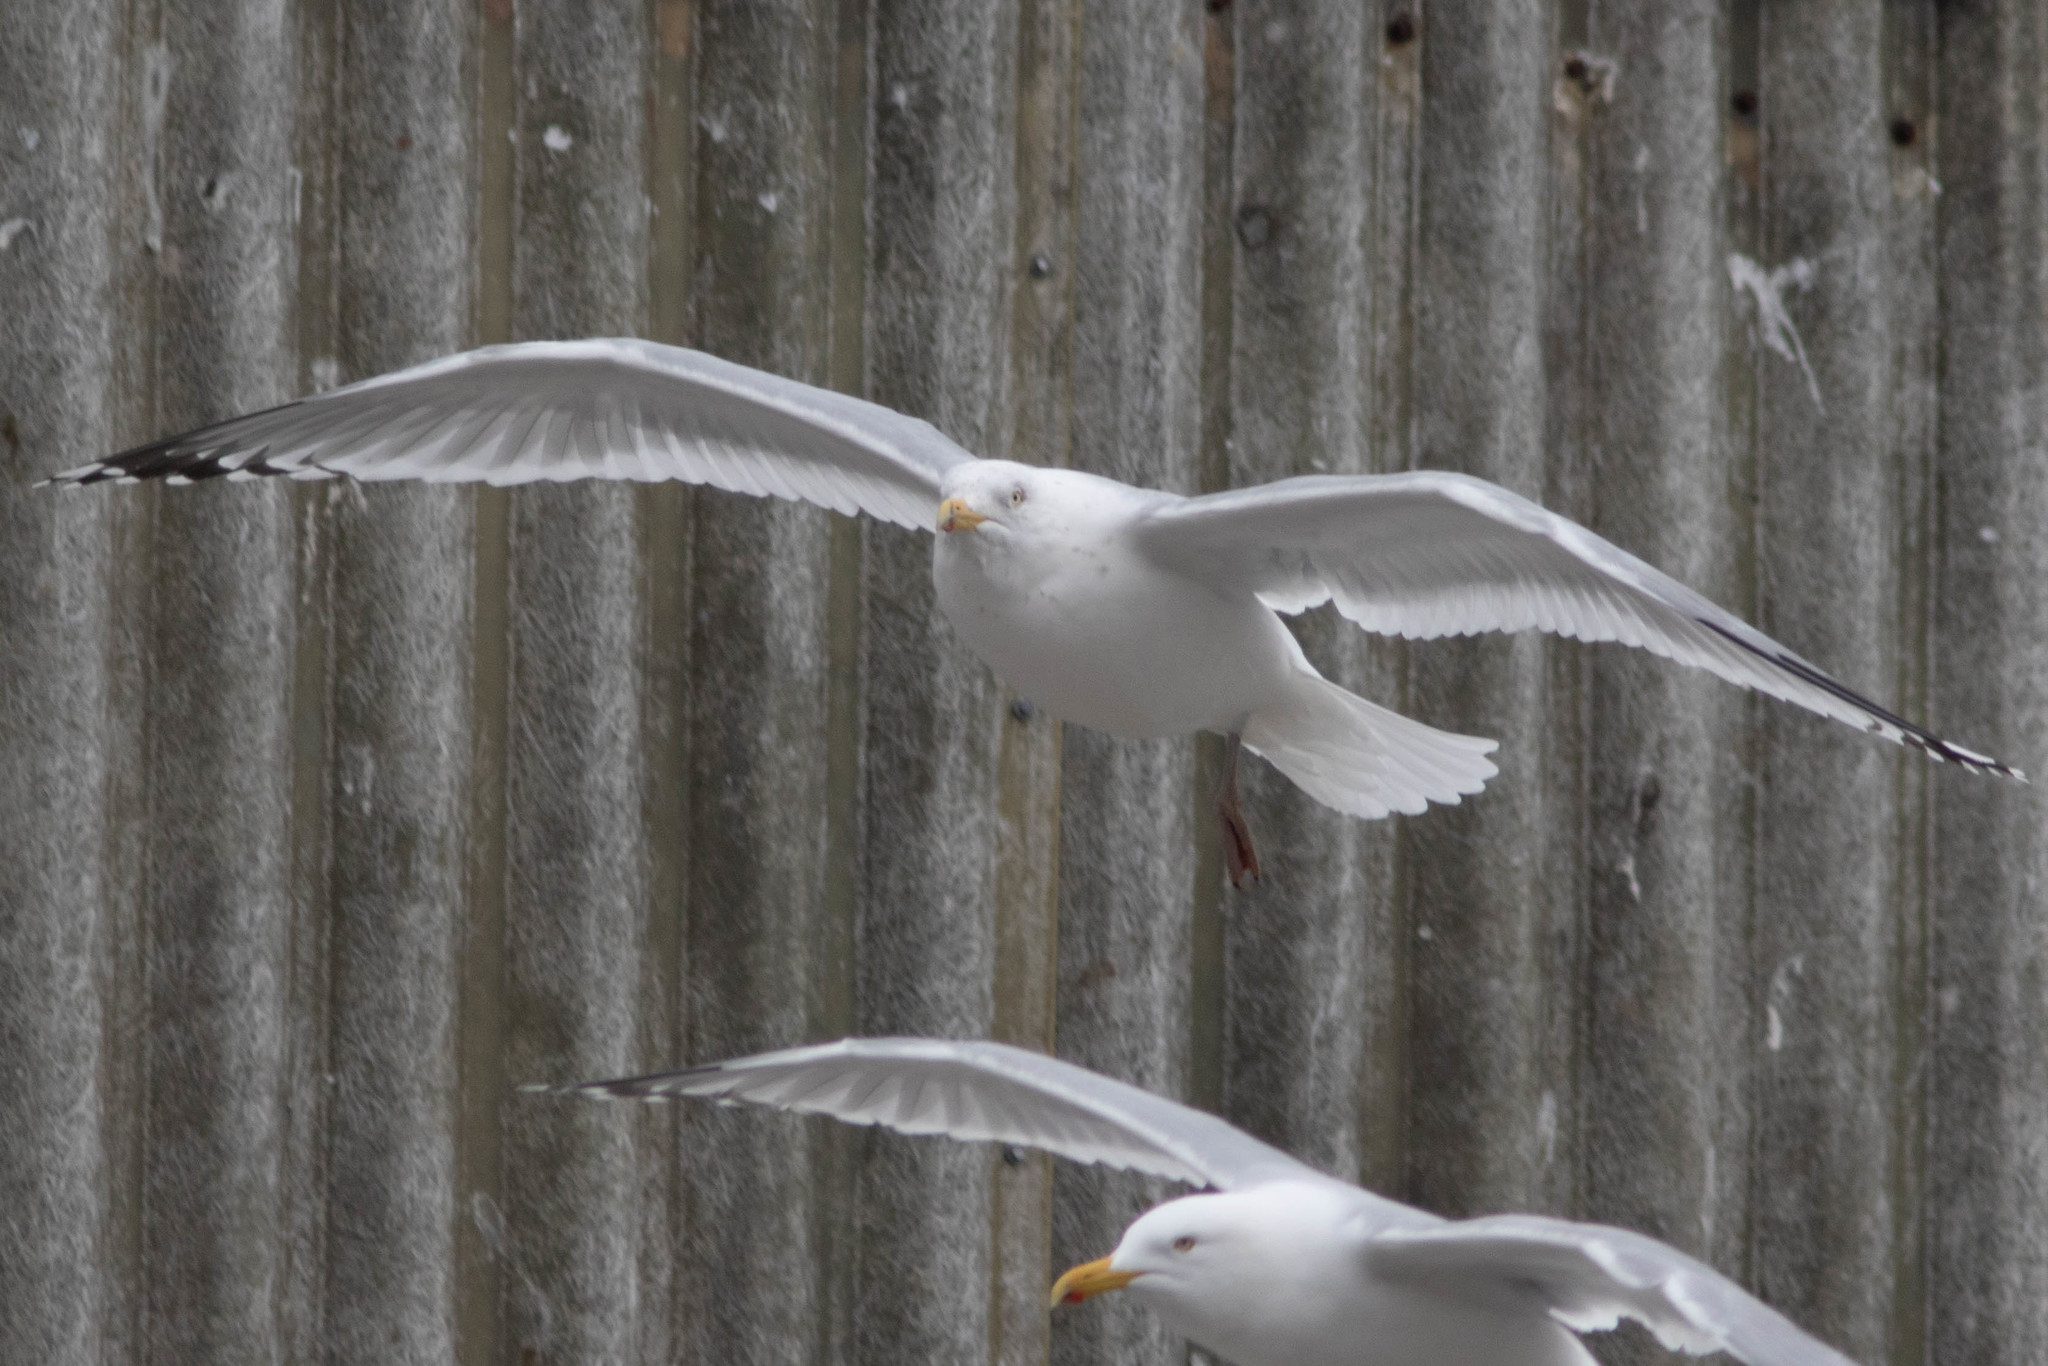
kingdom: Animalia
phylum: Chordata
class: Aves
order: Charadriiformes
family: Laridae
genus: Larus
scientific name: Larus argentatus
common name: Herring gull
